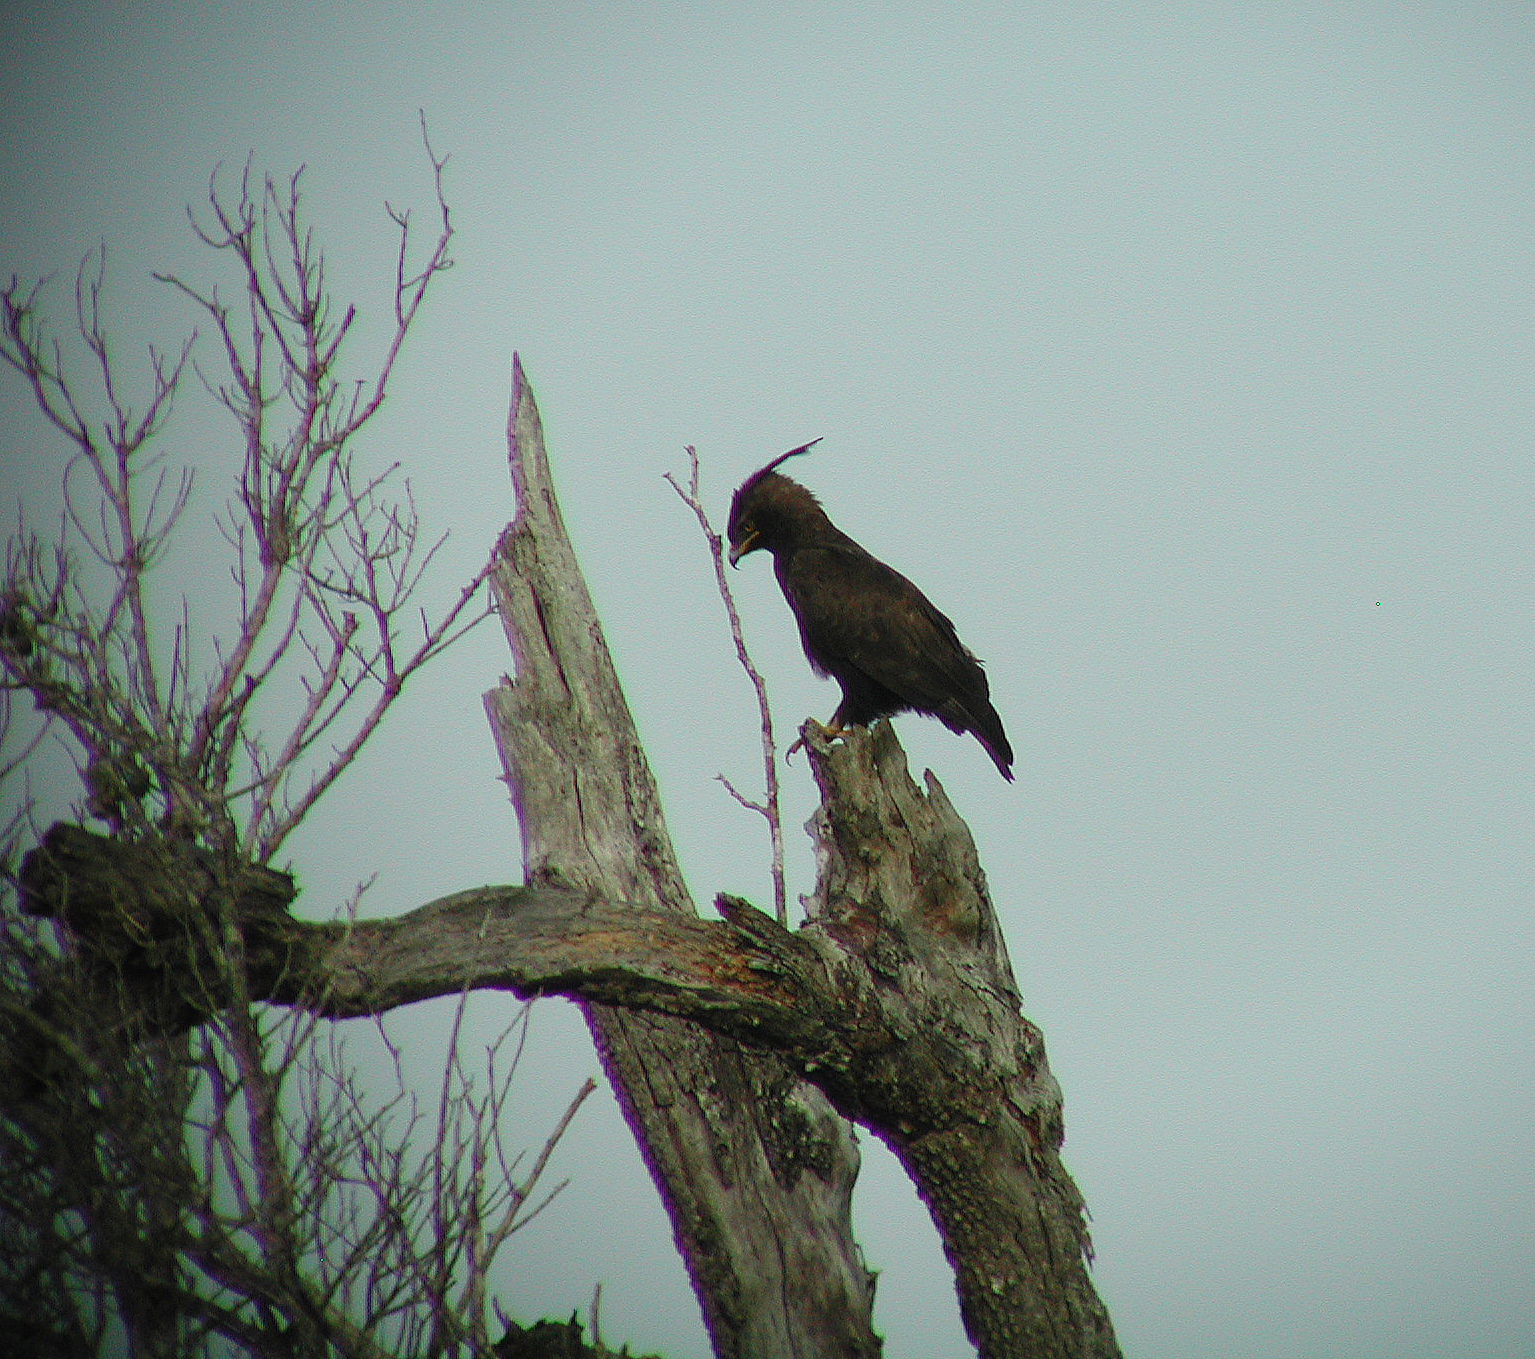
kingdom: Animalia
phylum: Chordata
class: Aves
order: Accipitriformes
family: Accipitridae
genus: Lophaetus
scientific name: Lophaetus occipitalis
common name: Long-crested eagle
